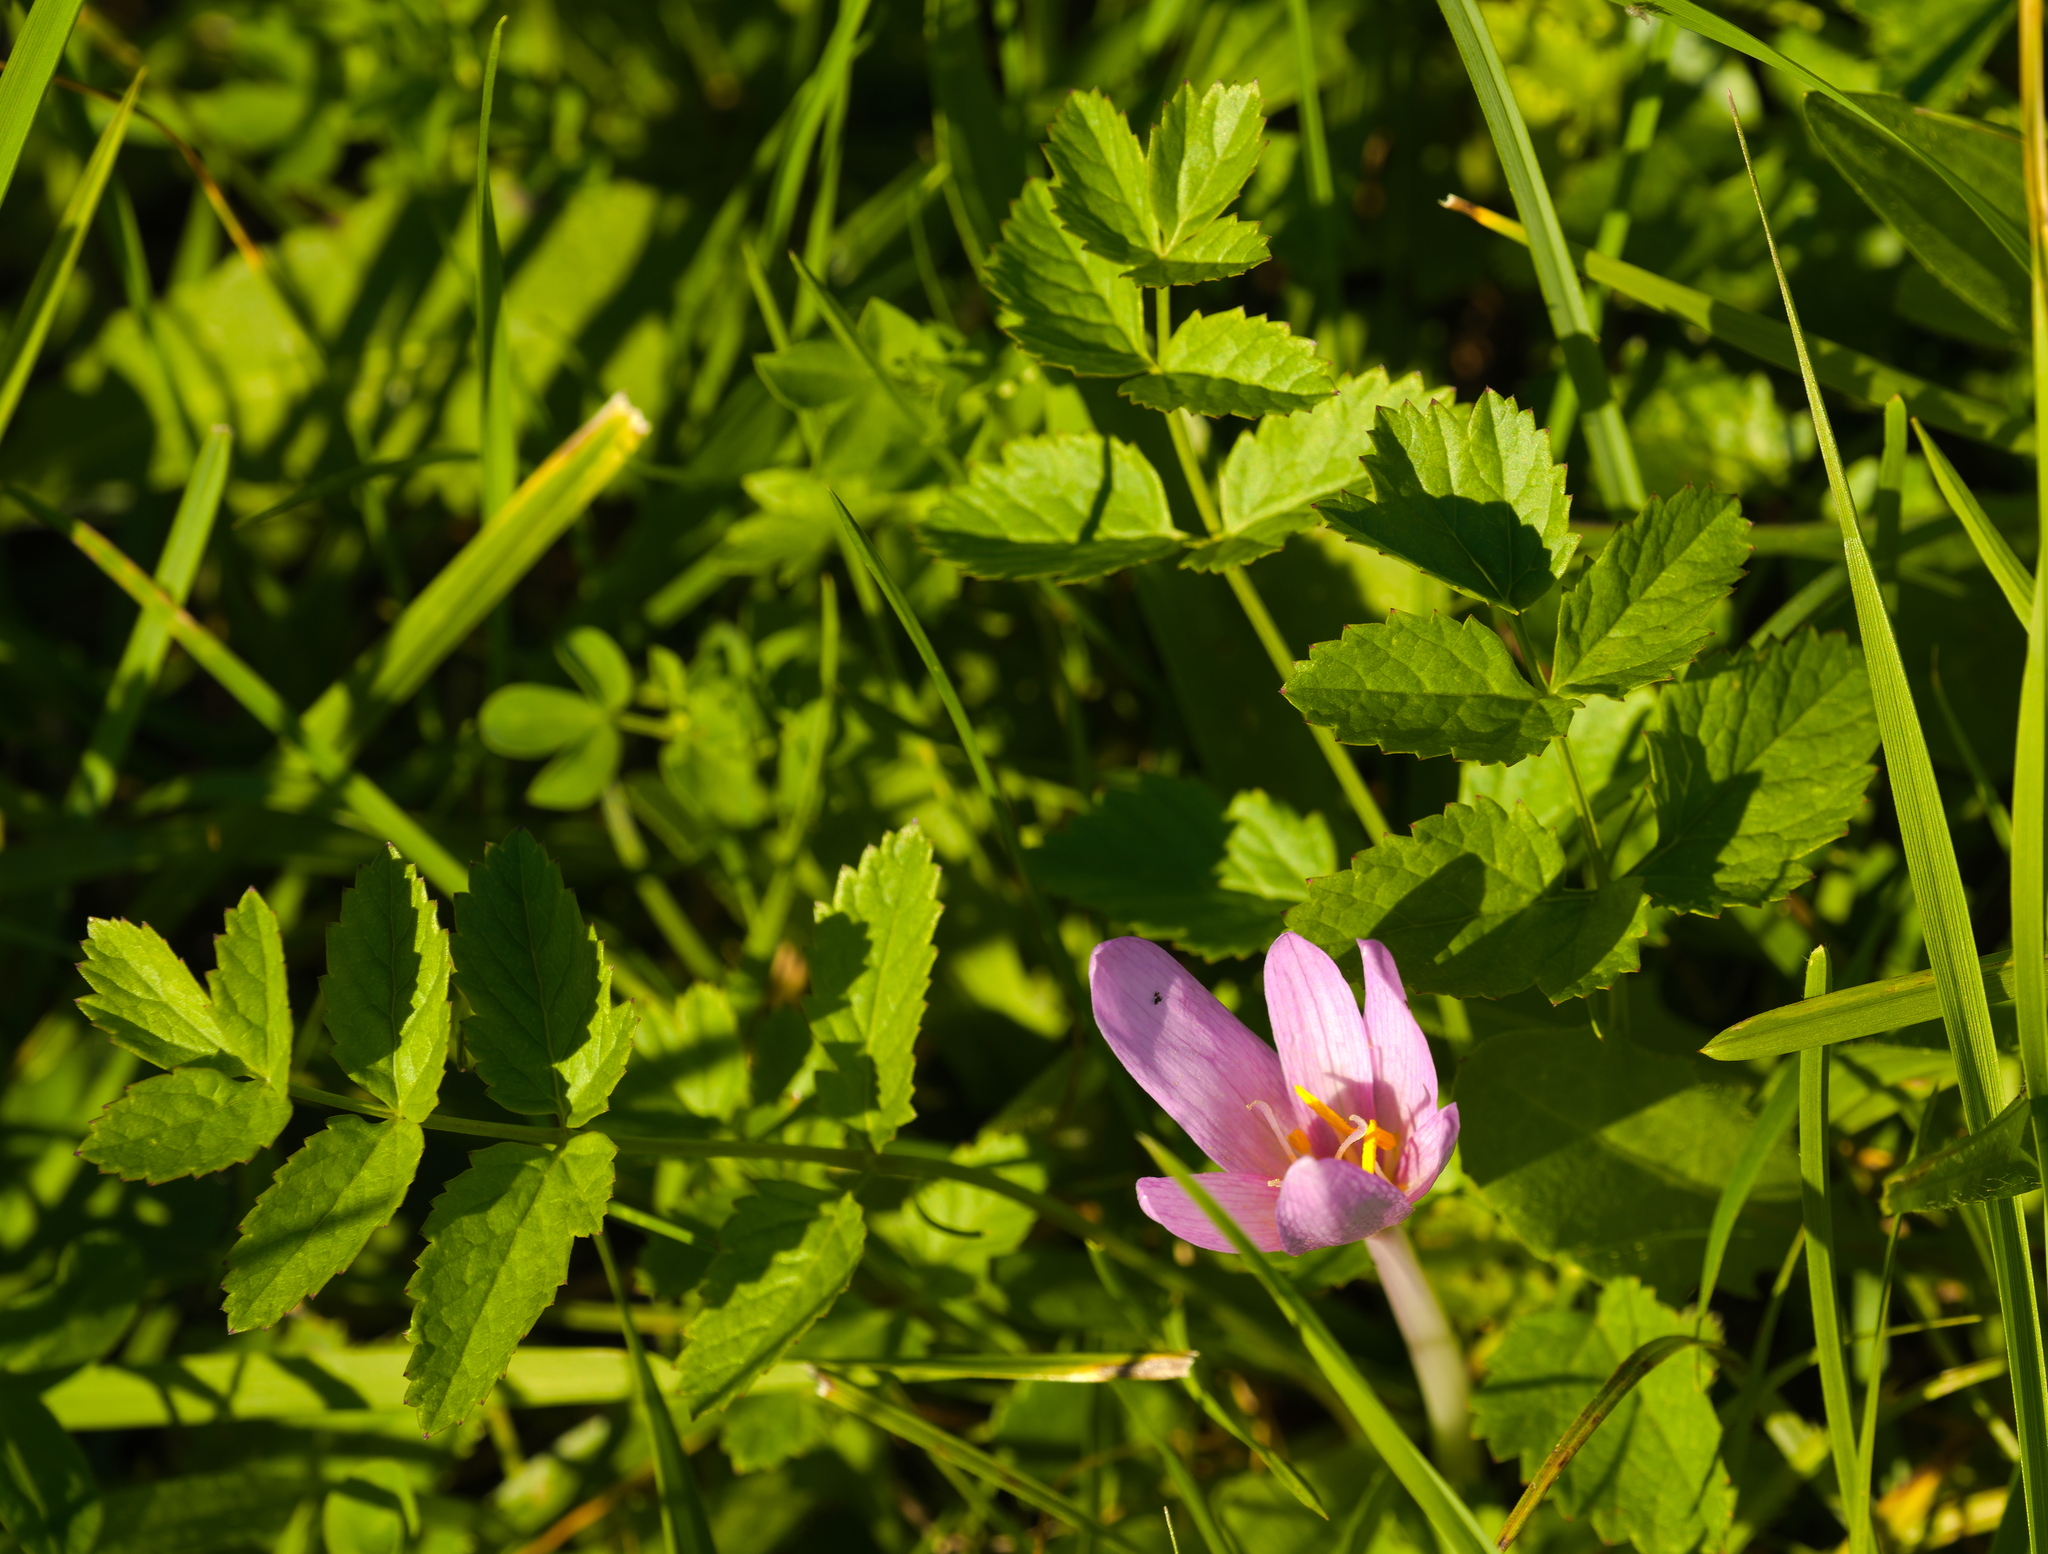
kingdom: Plantae
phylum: Tracheophyta
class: Magnoliopsida
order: Apiales
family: Apiaceae
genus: Pimpinella
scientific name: Pimpinella major
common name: Greater burnet-saxifrage
